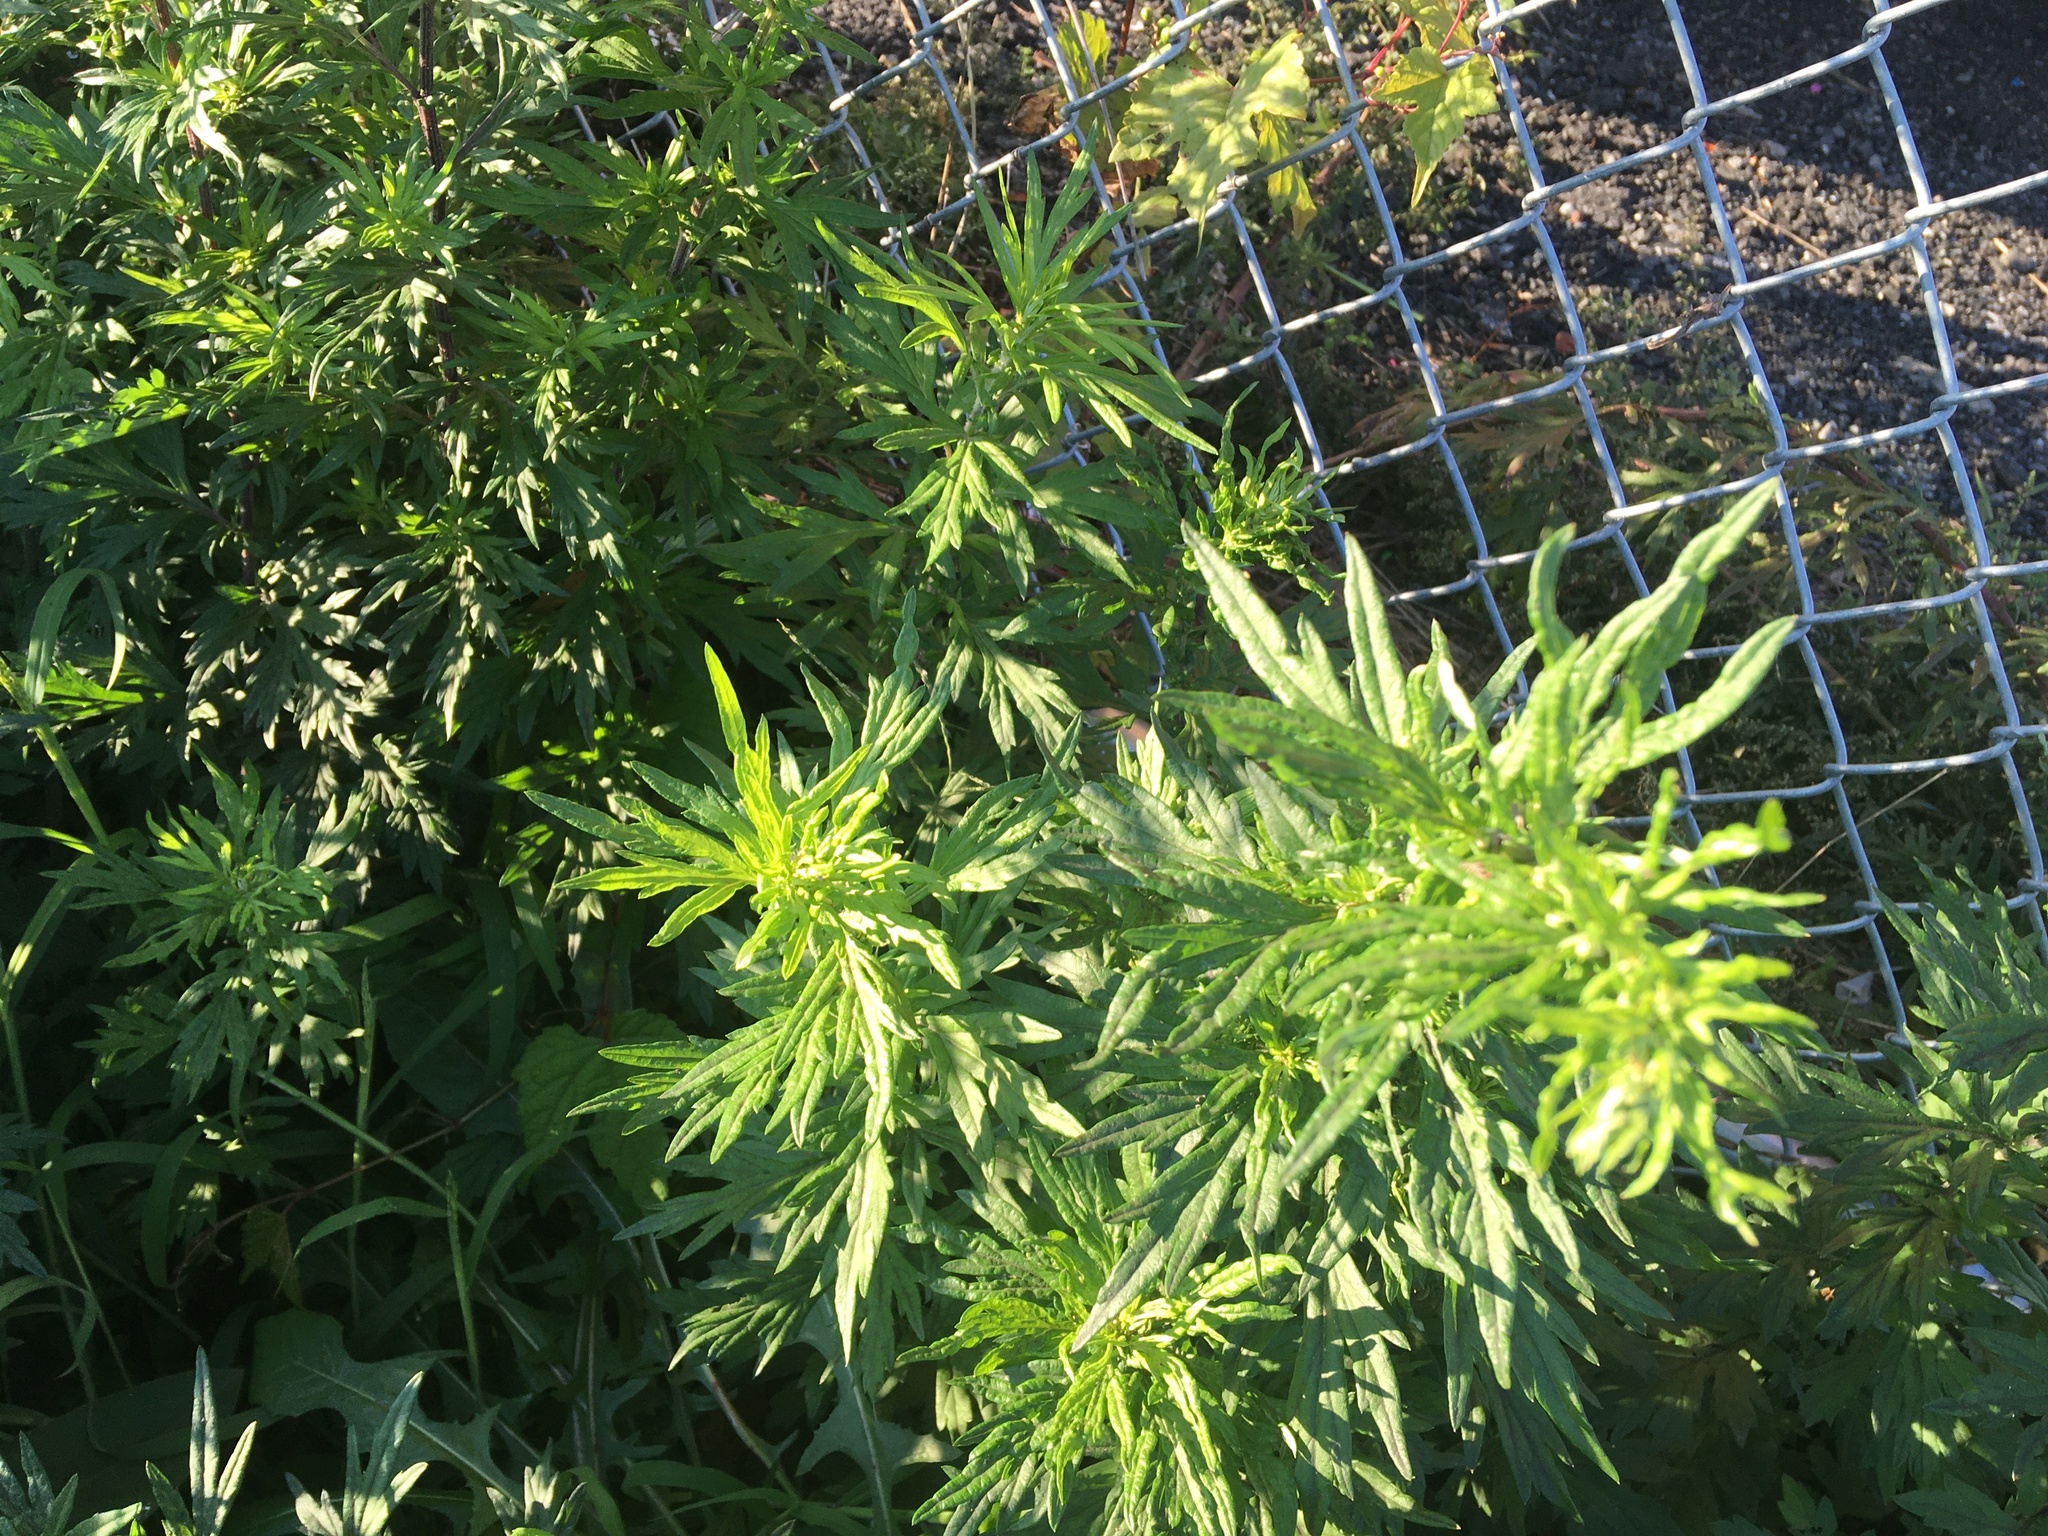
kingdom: Plantae
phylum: Tracheophyta
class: Magnoliopsida
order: Asterales
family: Asteraceae
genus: Artemisia
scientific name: Artemisia vulgaris
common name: Mugwort
